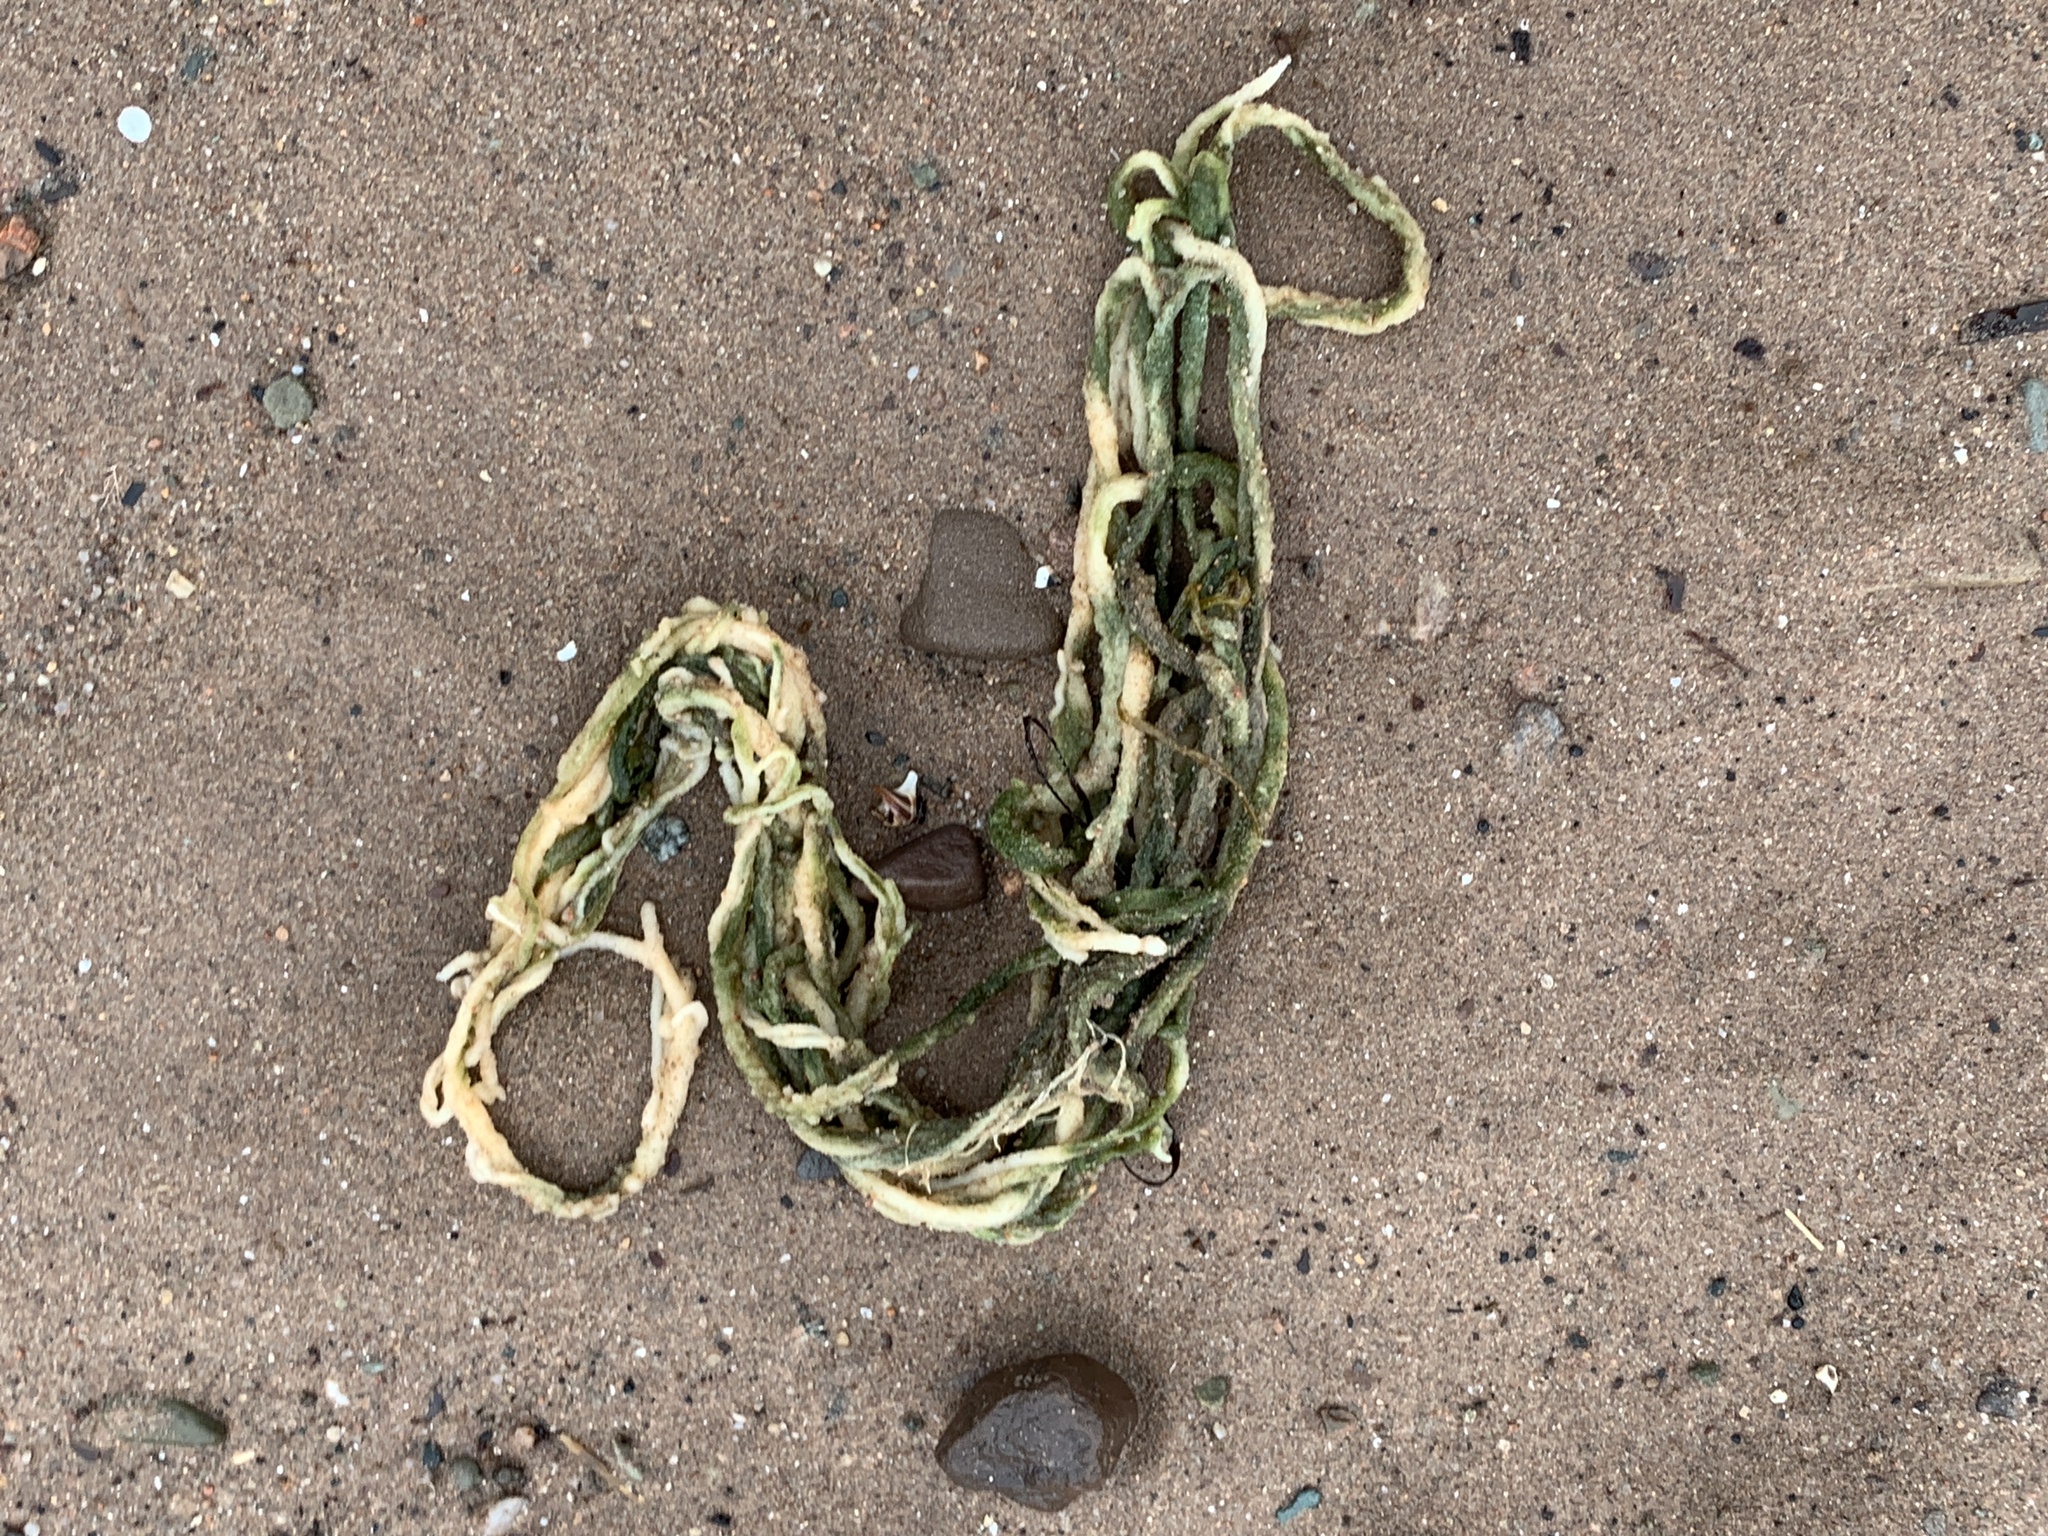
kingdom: Plantae
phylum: Chlorophyta
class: Ulvophyceae
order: Bryopsidales
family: Codiaceae
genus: Codium
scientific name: Codium fragile
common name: Dead man's fingers
